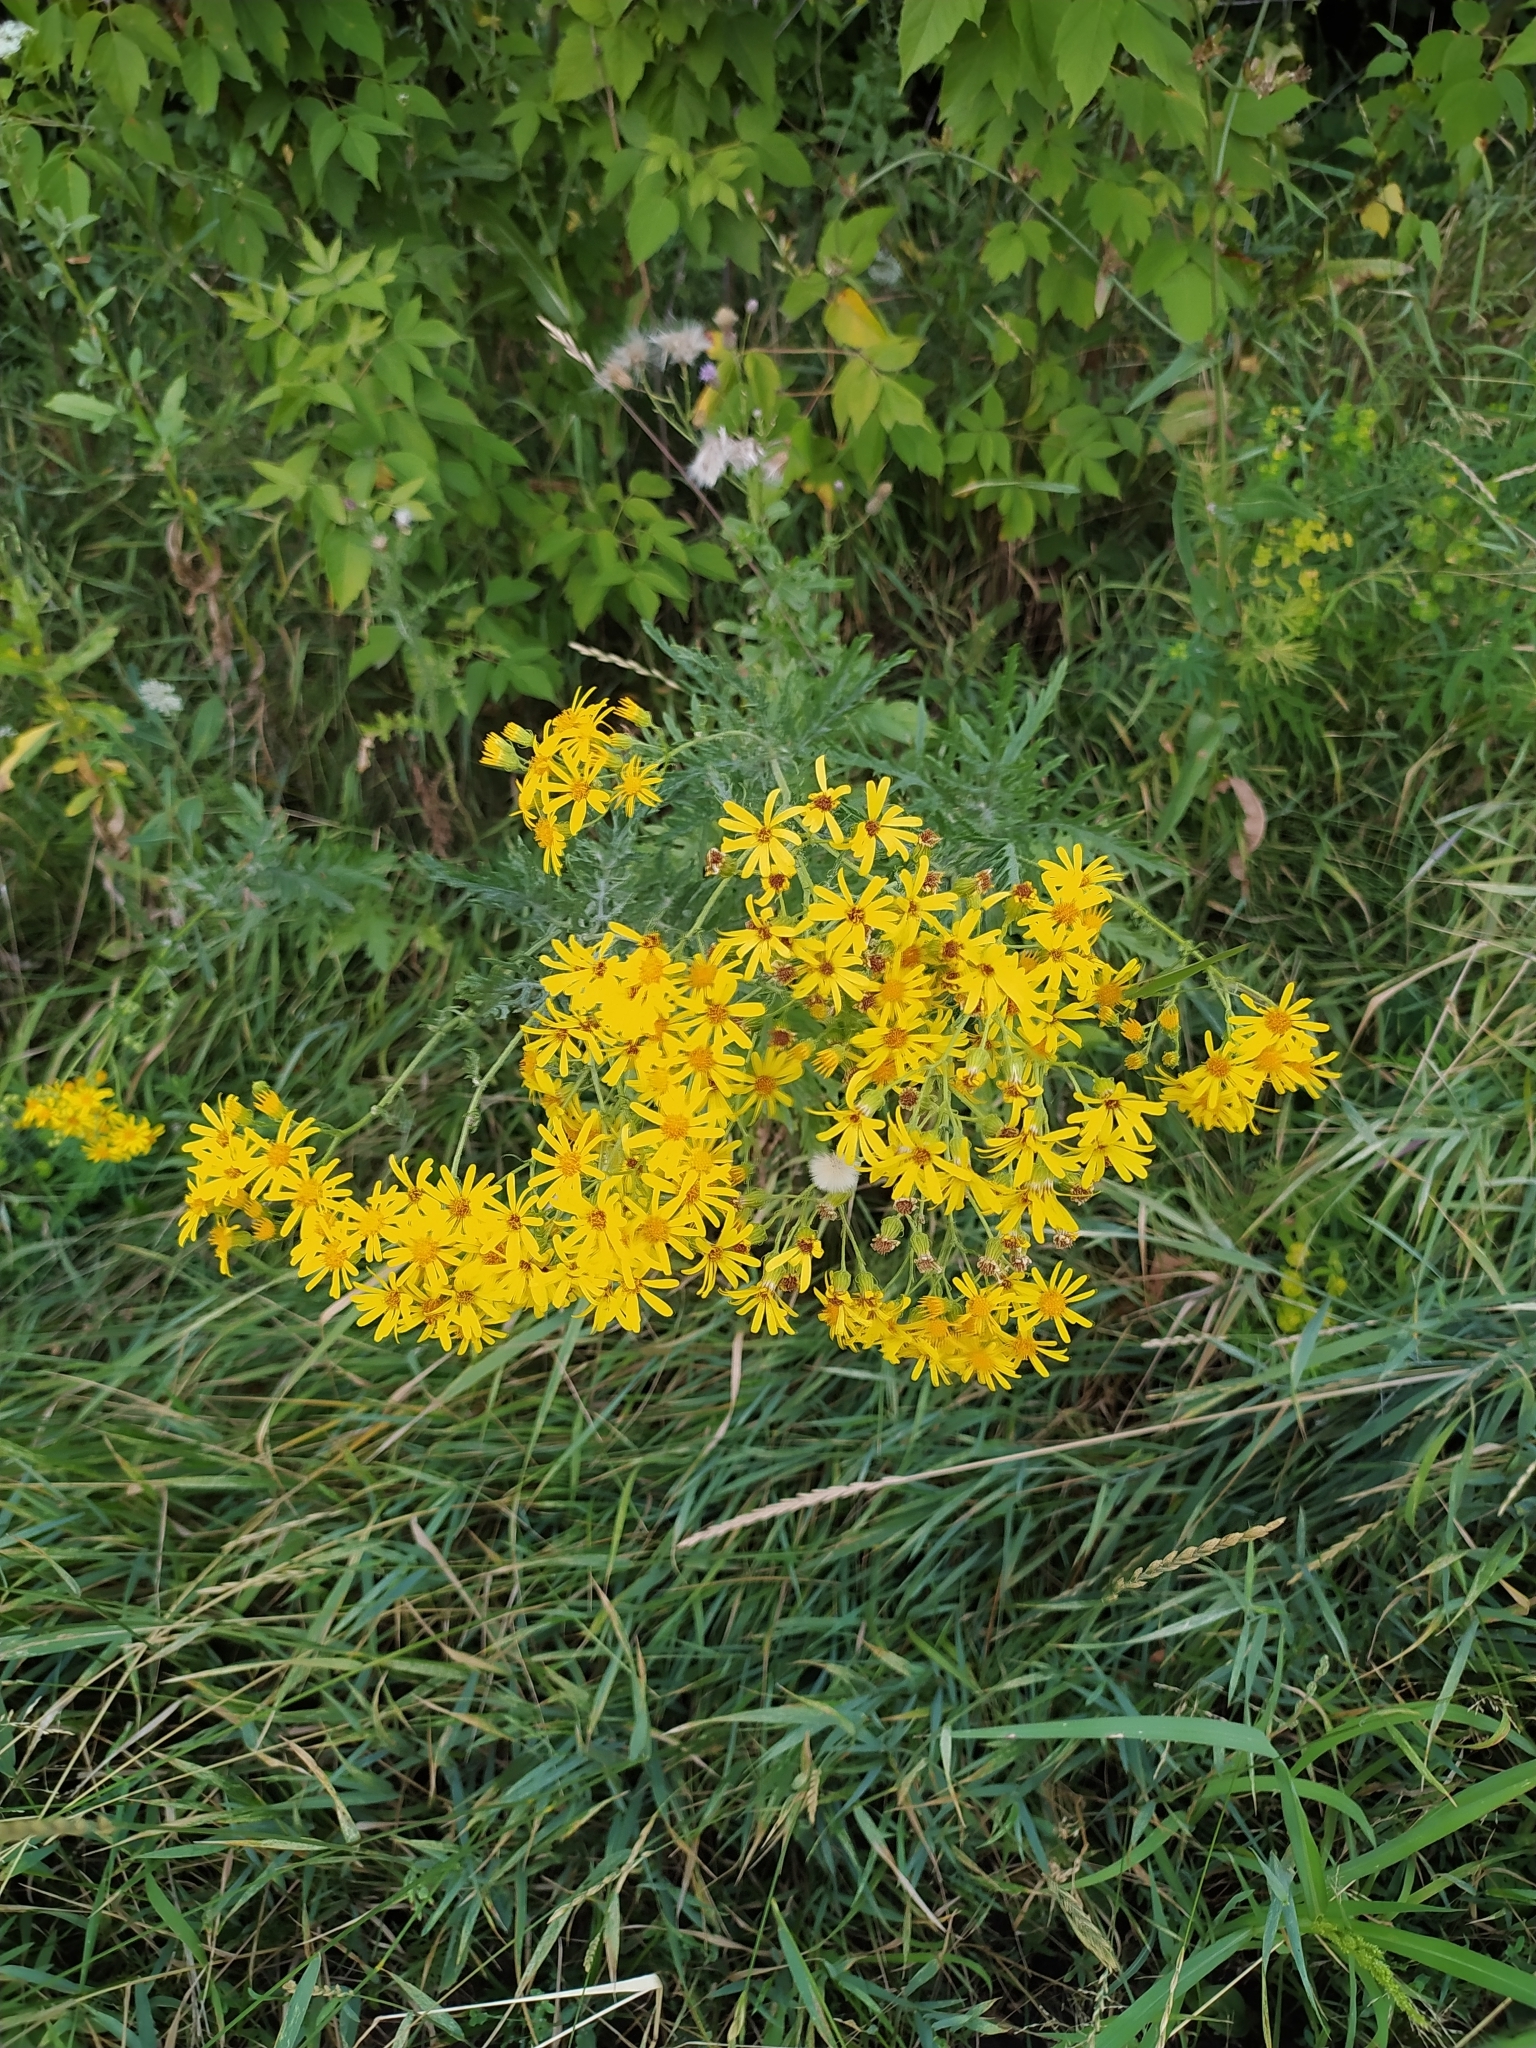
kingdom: Plantae
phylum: Tracheophyta
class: Magnoliopsida
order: Asterales
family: Asteraceae
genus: Jacobaea
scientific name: Jacobaea erucifolia
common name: Hoary ragwort
